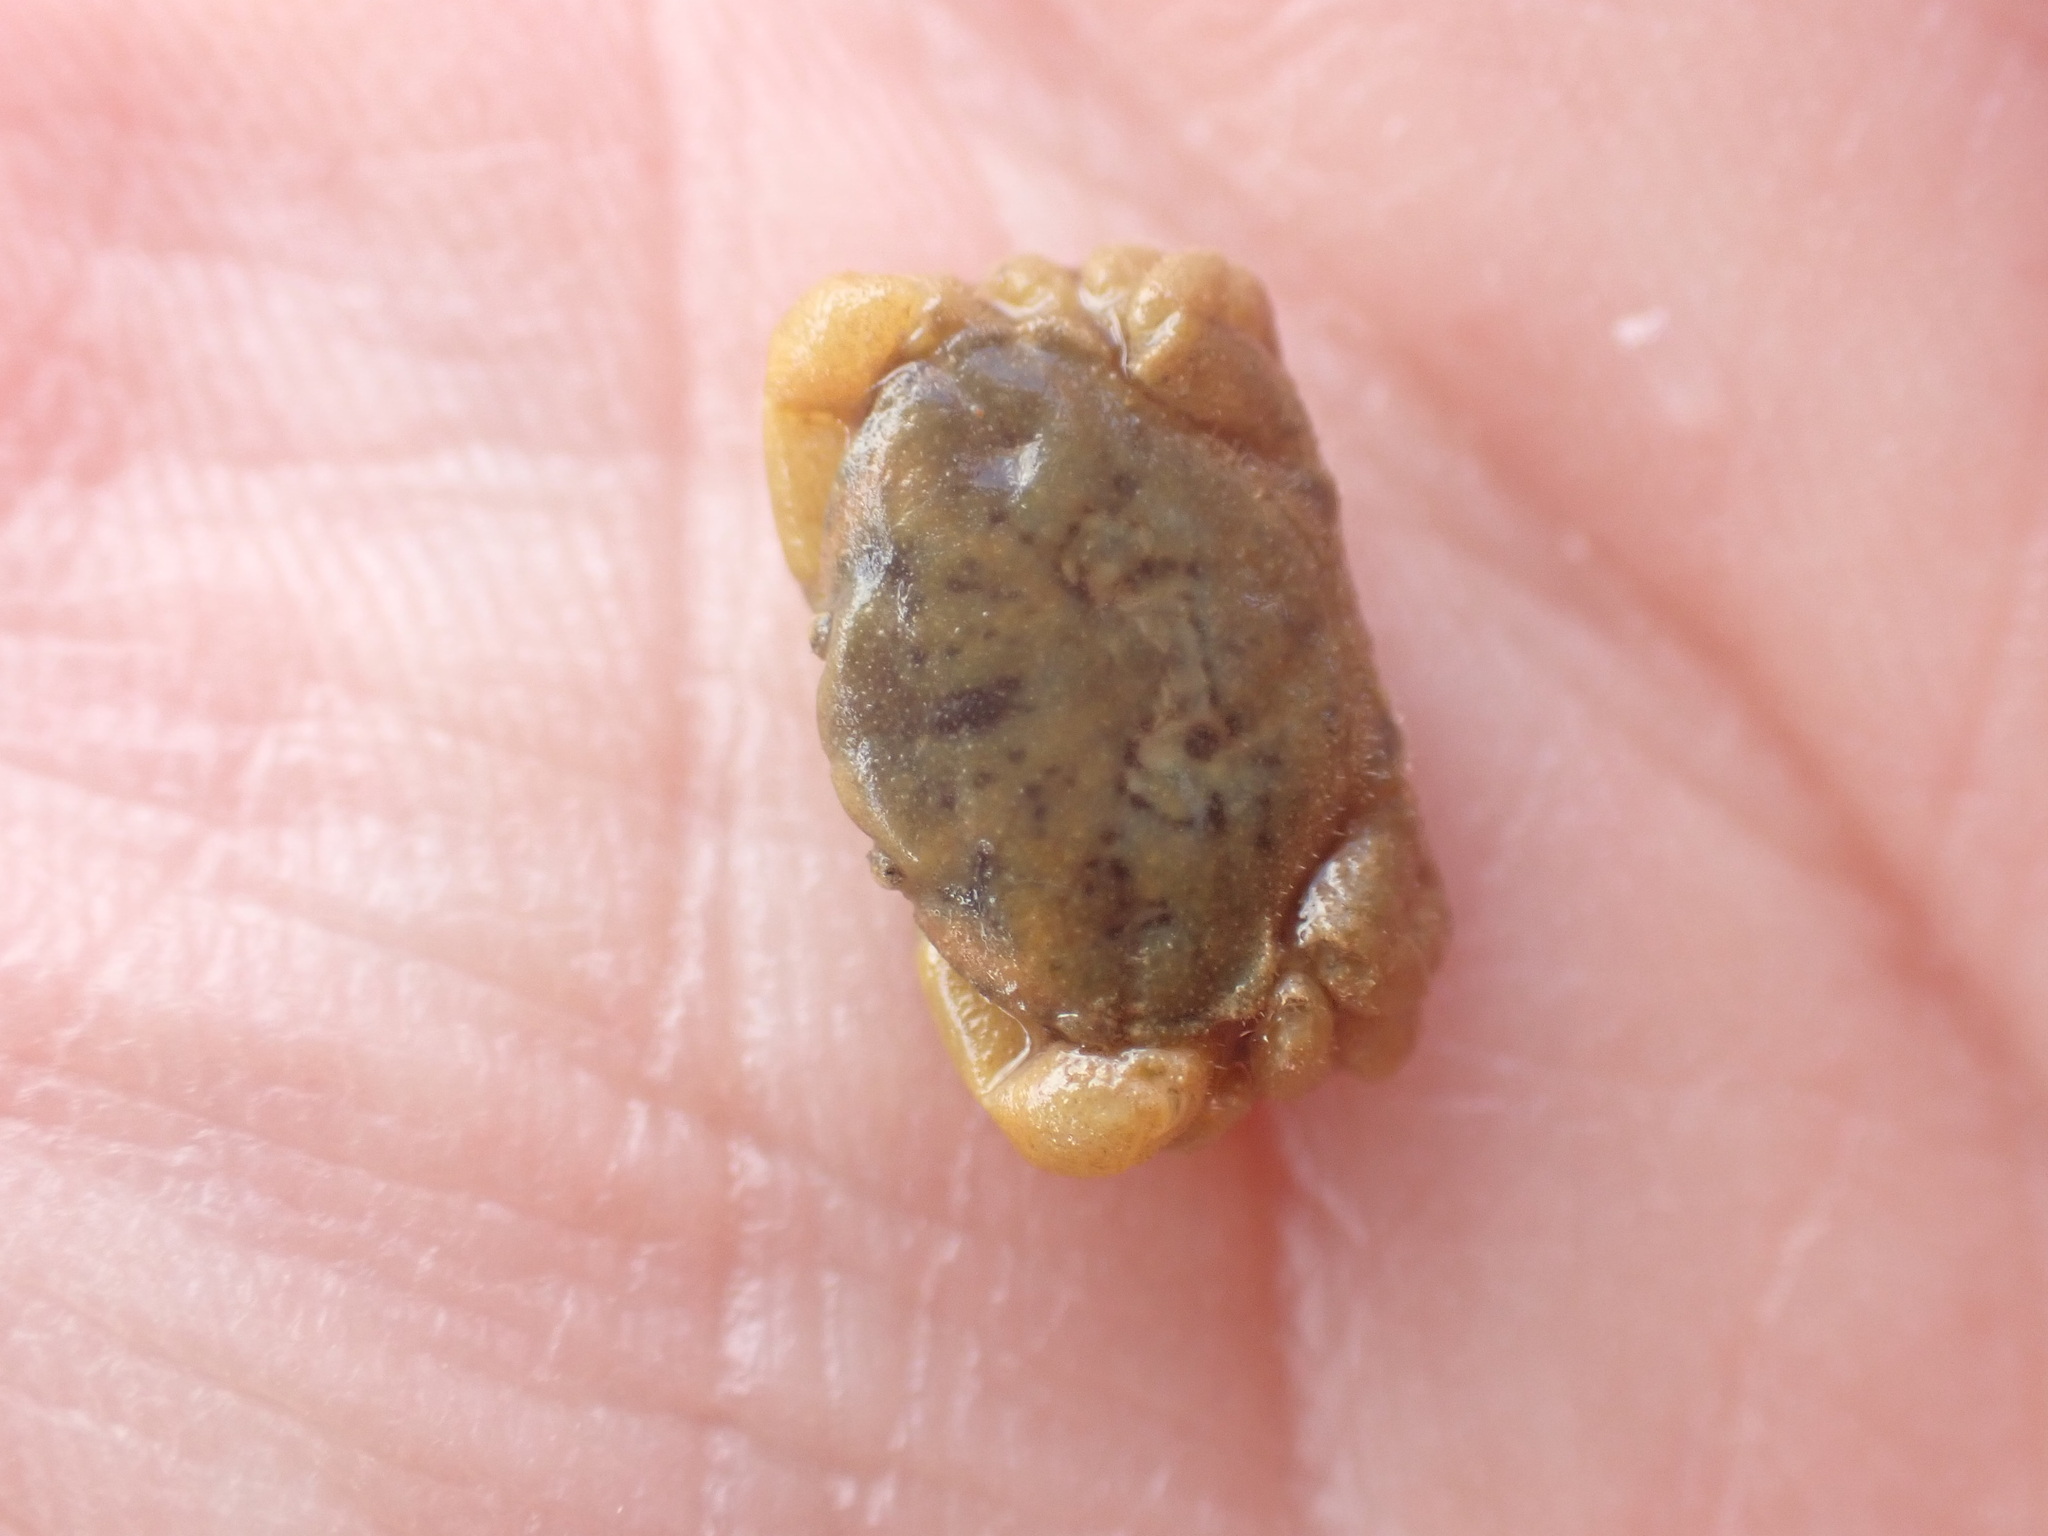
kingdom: Animalia
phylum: Arthropoda
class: Malacostraca
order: Decapoda
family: Heteroziidae
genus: Heterozius
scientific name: Heterozius rotundifrons
